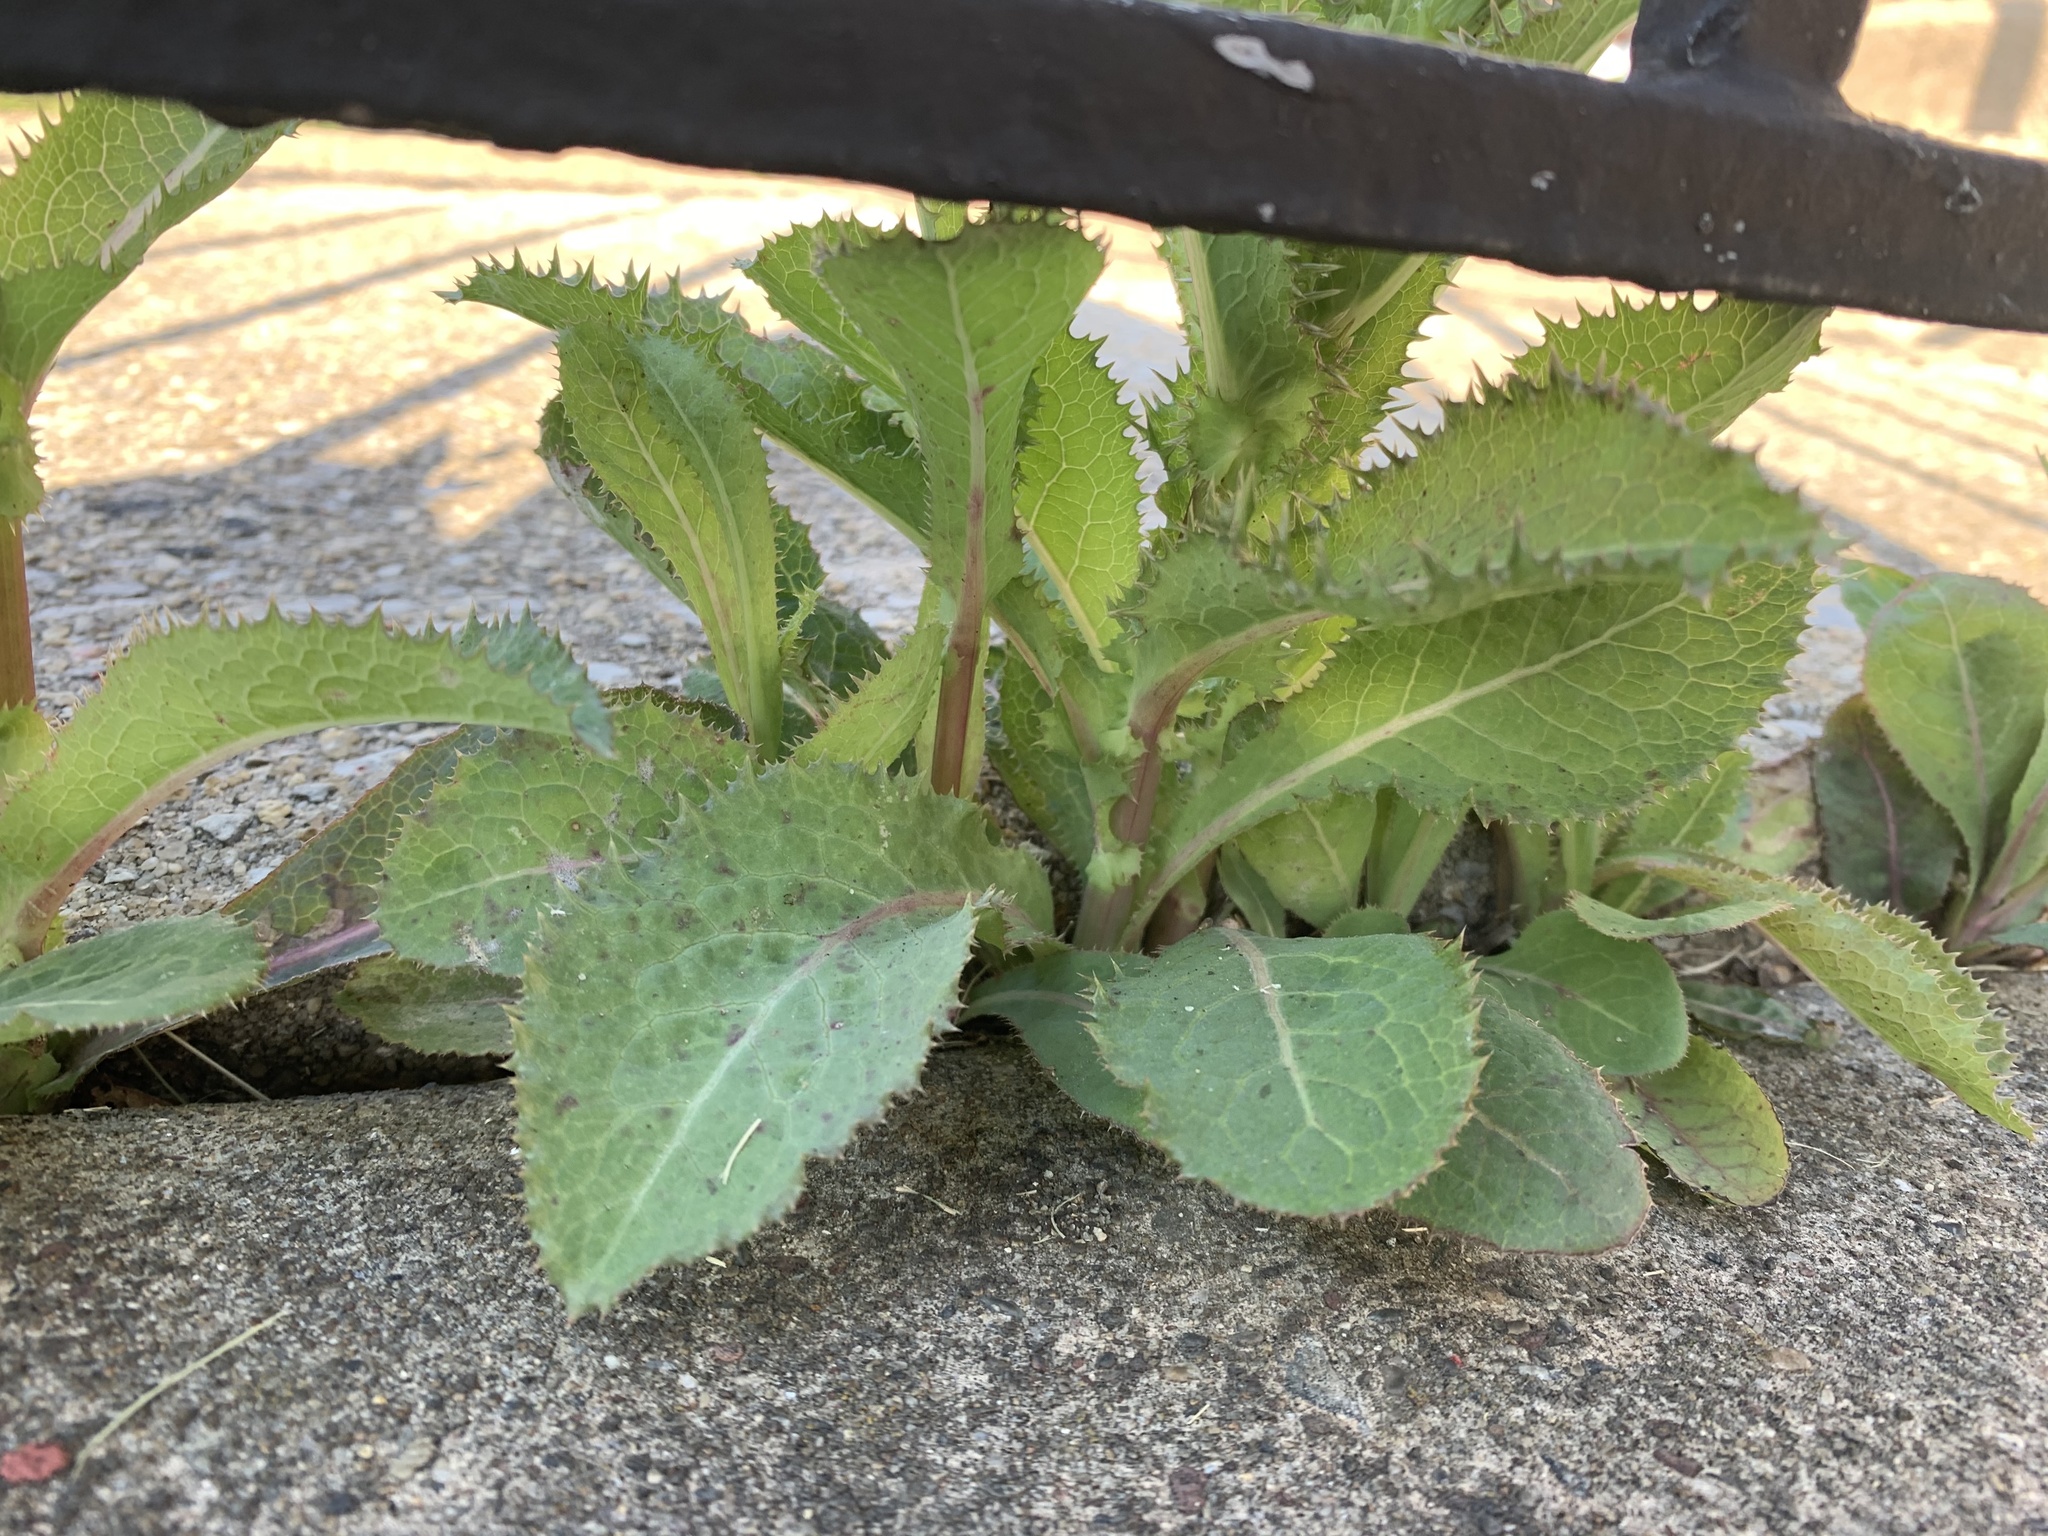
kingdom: Plantae
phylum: Tracheophyta
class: Magnoliopsida
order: Asterales
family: Asteraceae
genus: Sonchus
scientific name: Sonchus asper
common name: Prickly sow-thistle
